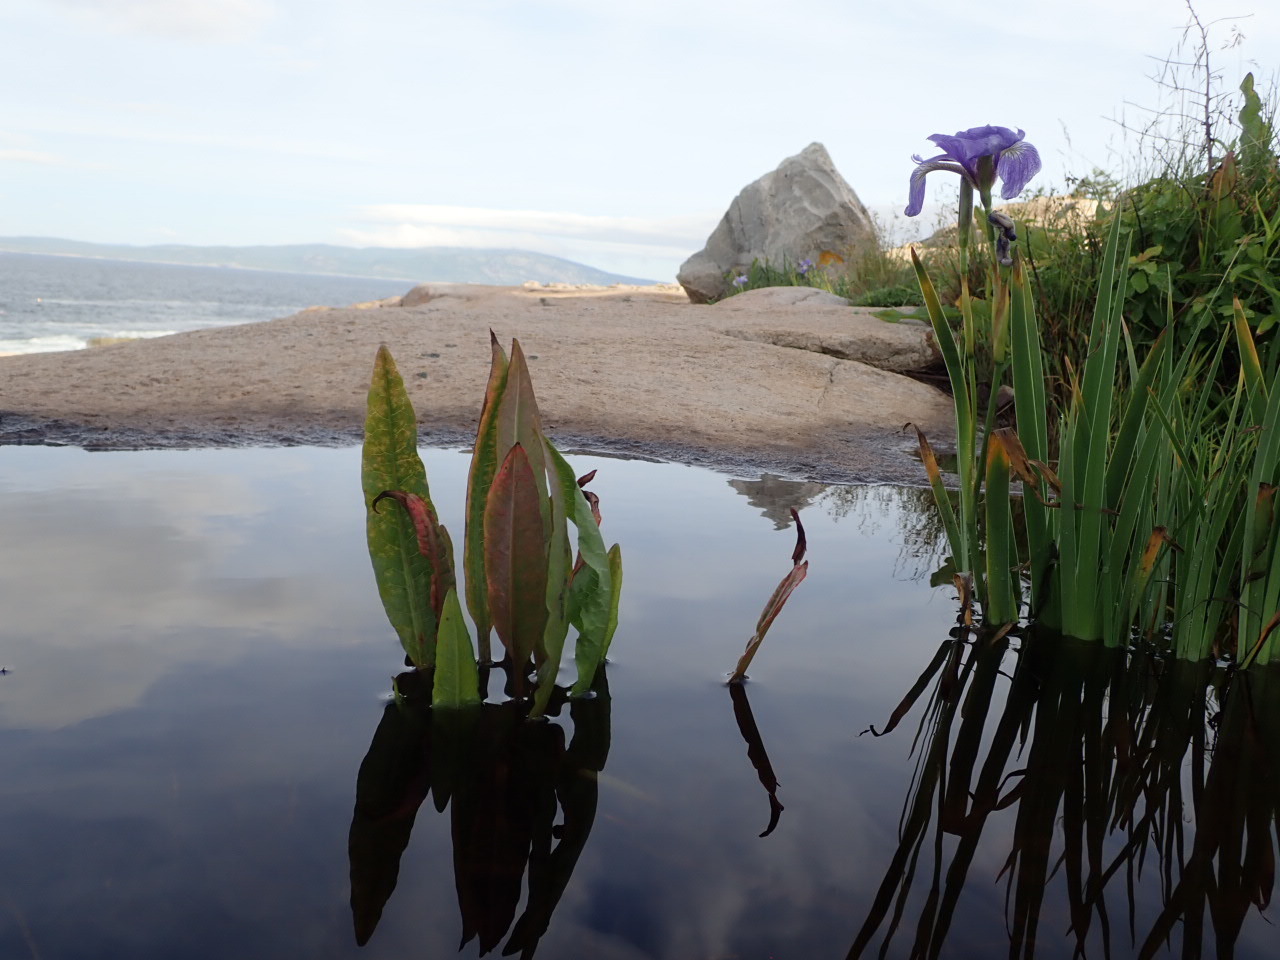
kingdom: Plantae
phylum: Tracheophyta
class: Liliopsida
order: Asparagales
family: Iridaceae
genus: Iris
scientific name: Iris hookeri
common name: Canada beach-head iris
